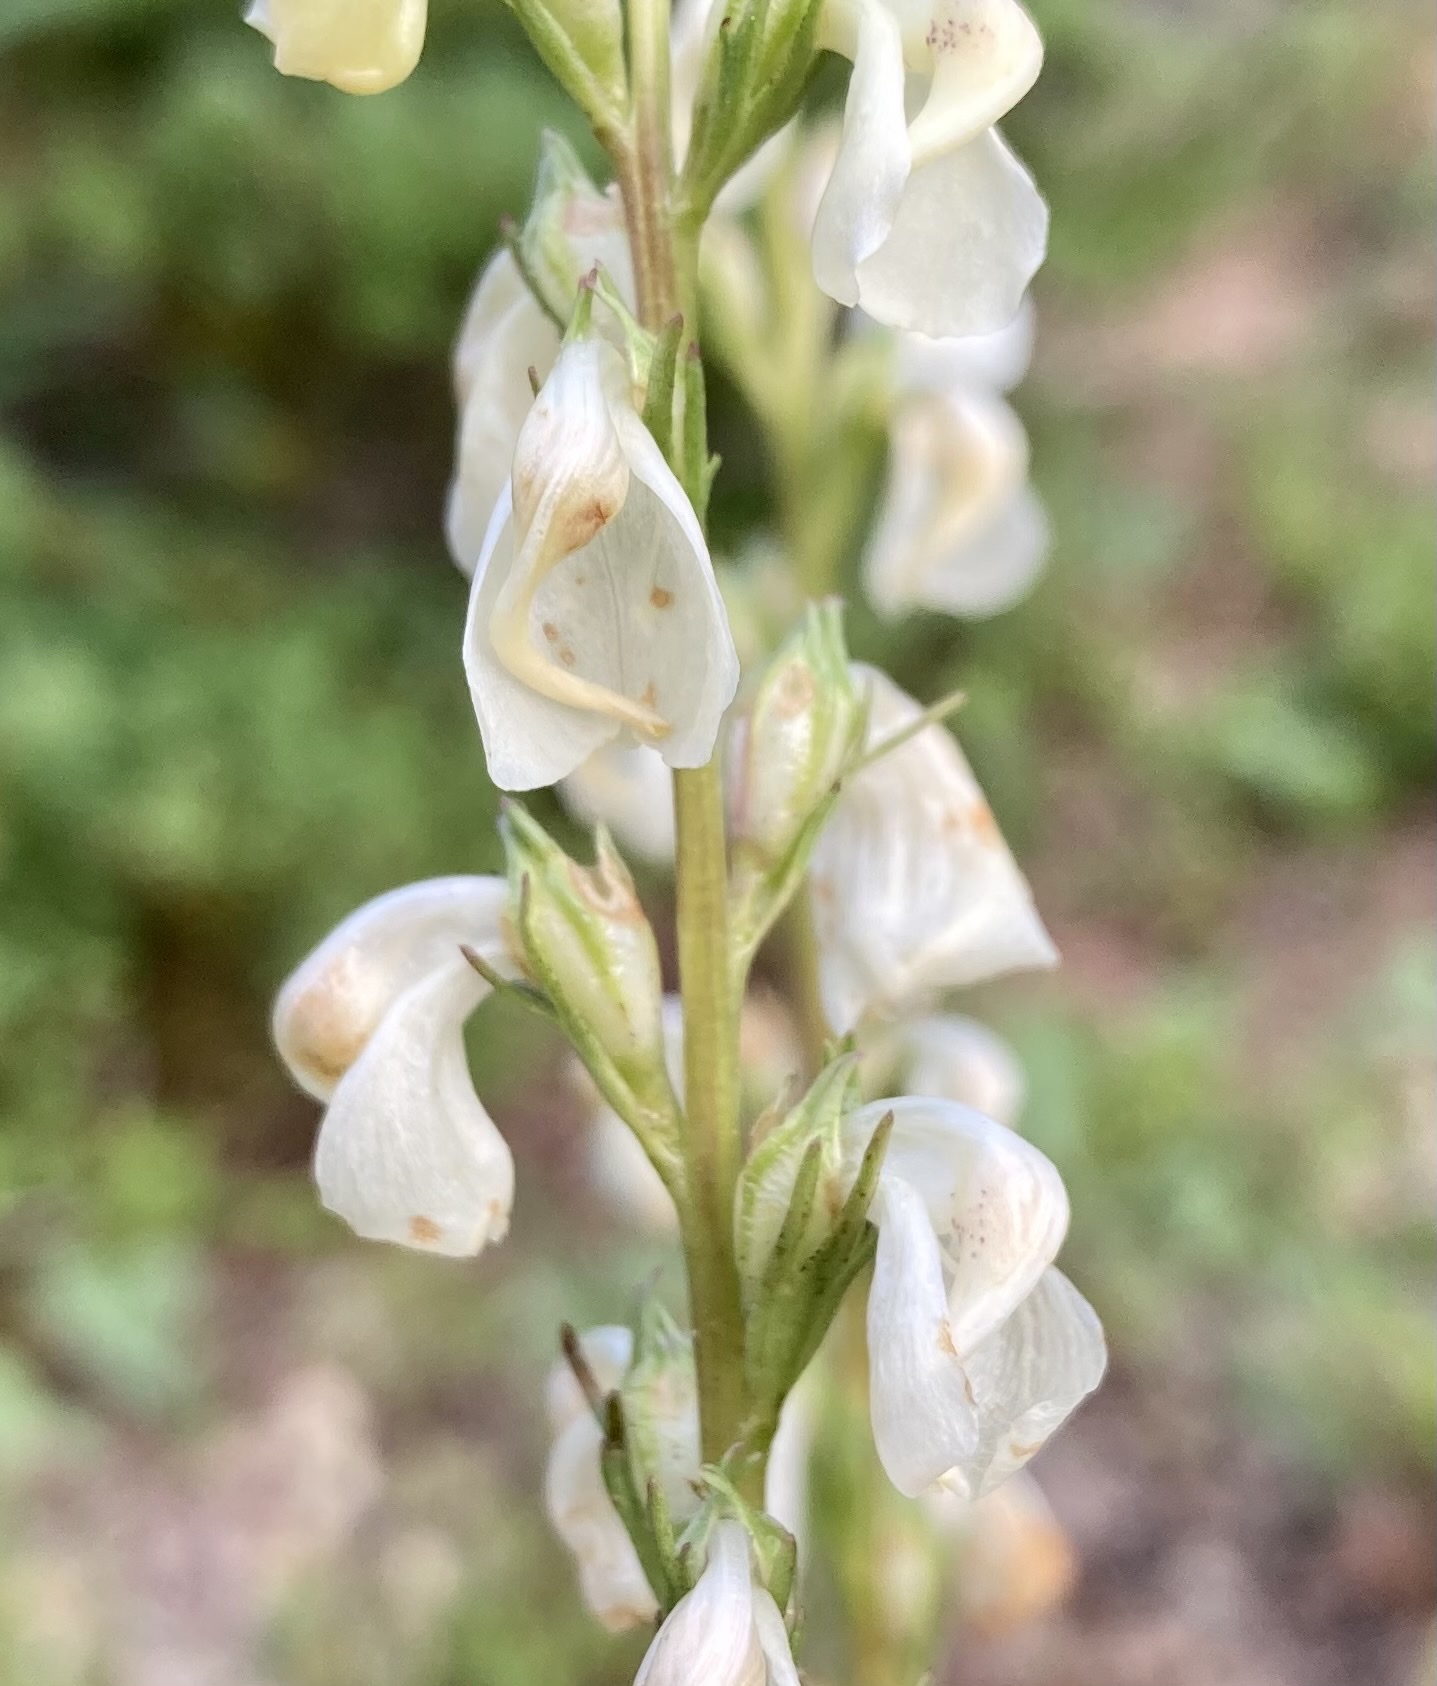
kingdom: Plantae
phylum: Tracheophyta
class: Magnoliopsida
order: Lamiales
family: Orobanchaceae
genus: Pedicularis
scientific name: Pedicularis contorta
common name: Coiled lousewort
